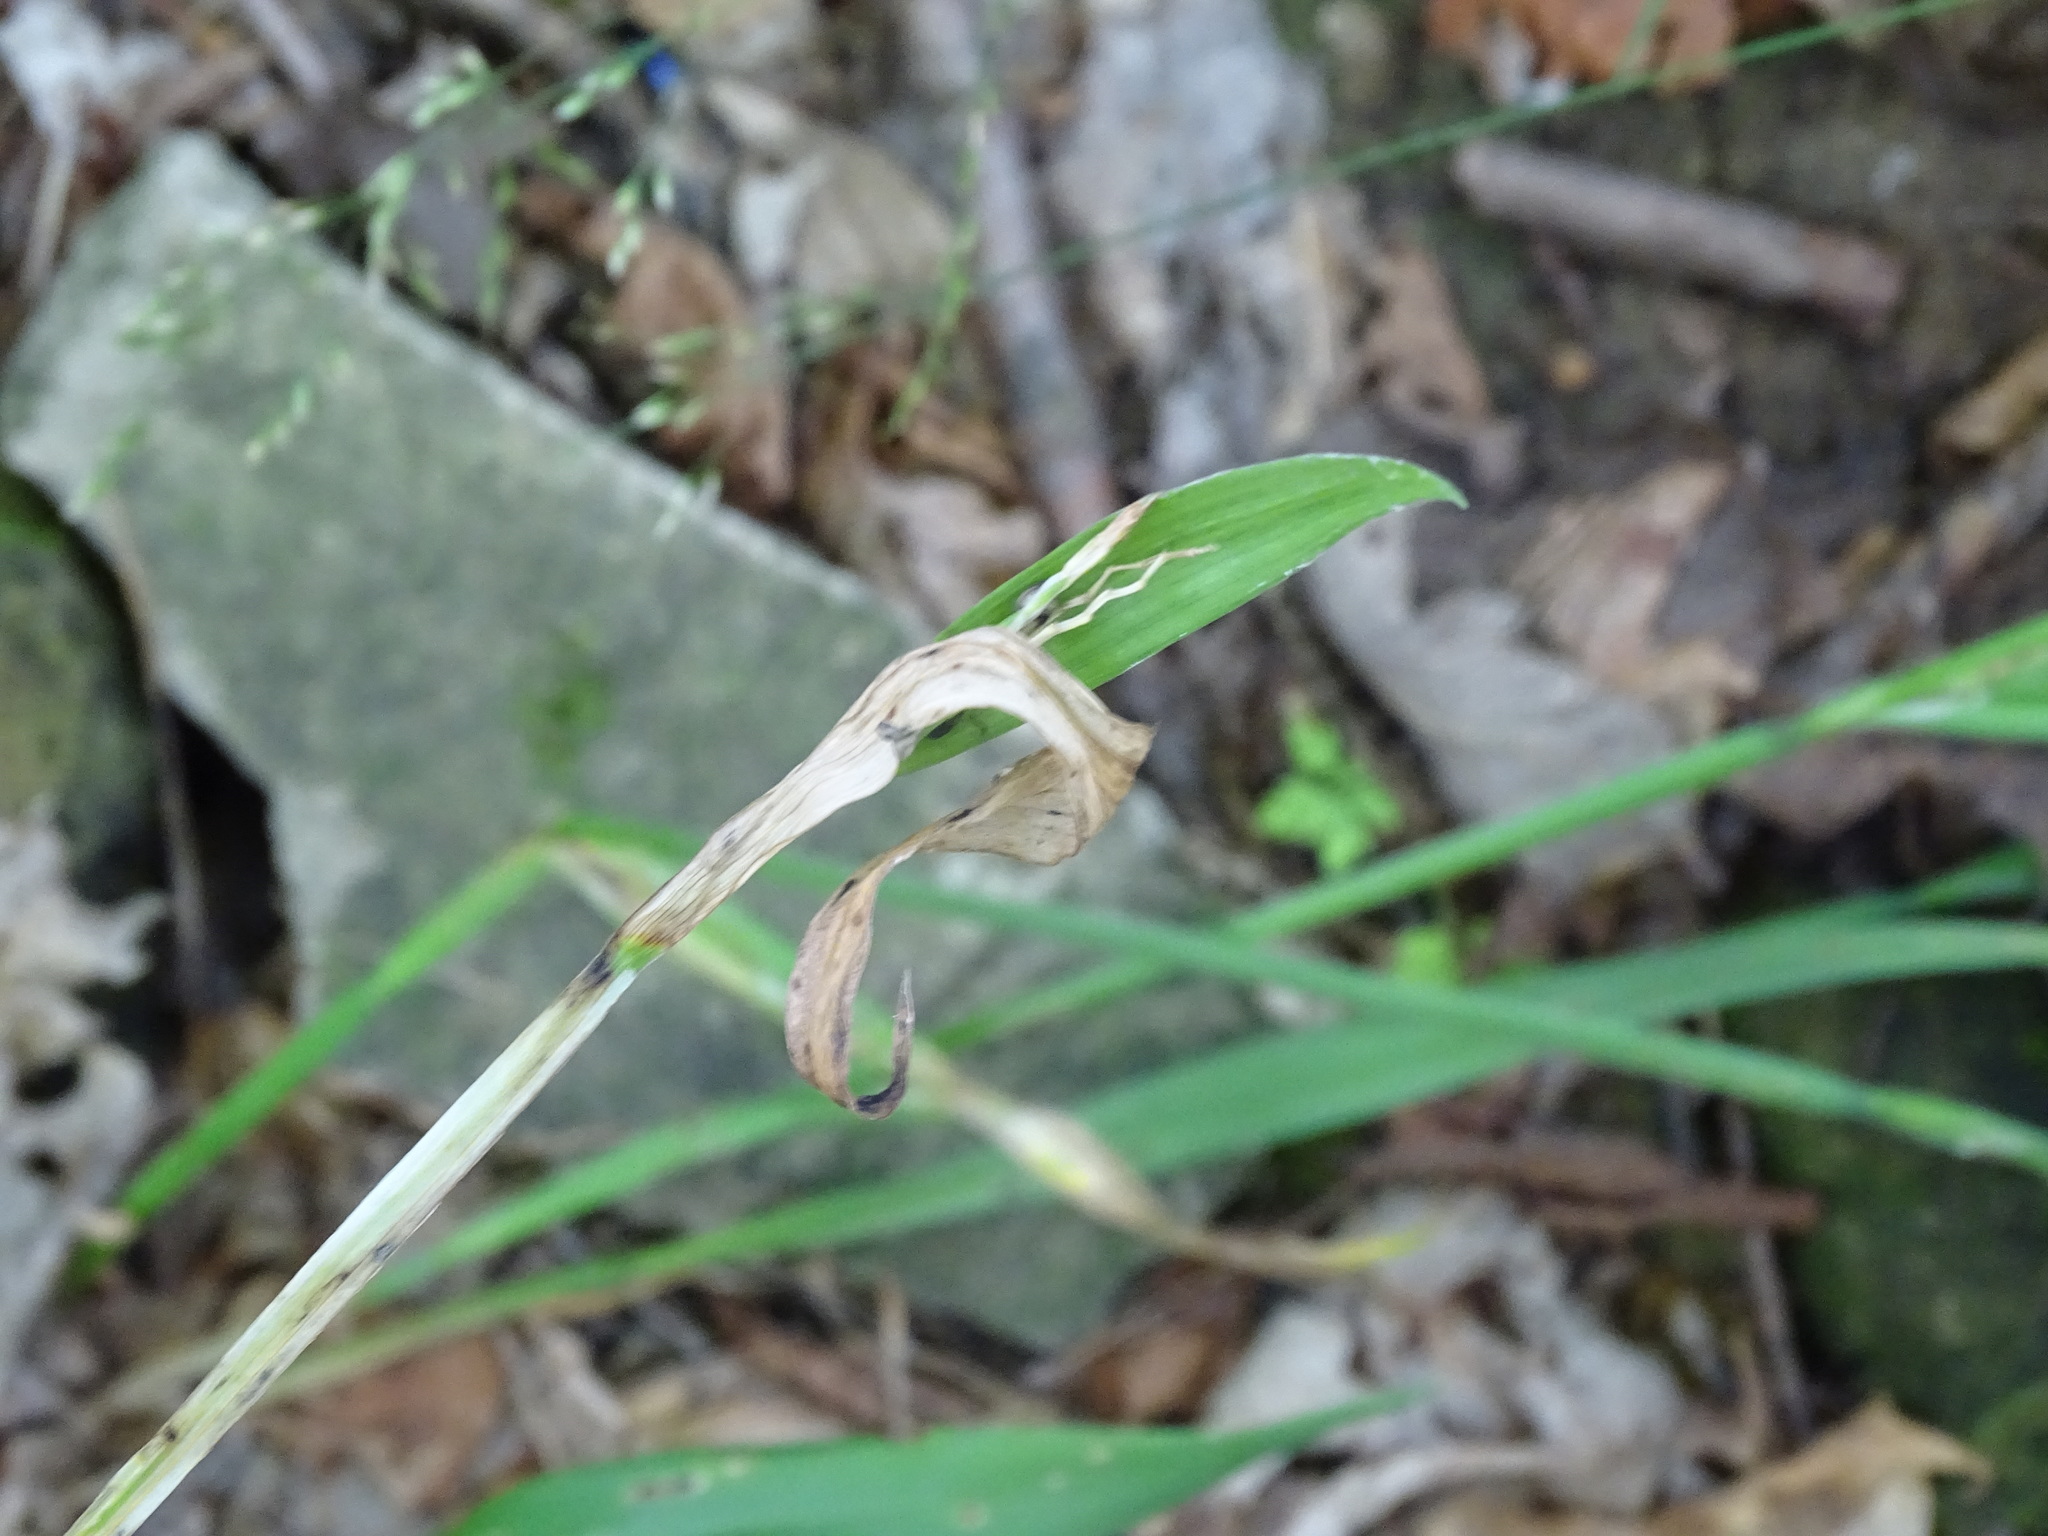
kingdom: Plantae
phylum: Tracheophyta
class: Liliopsida
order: Poales
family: Cyperaceae
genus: Carex
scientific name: Carex albursina
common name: Blunt-scale wood sedge
